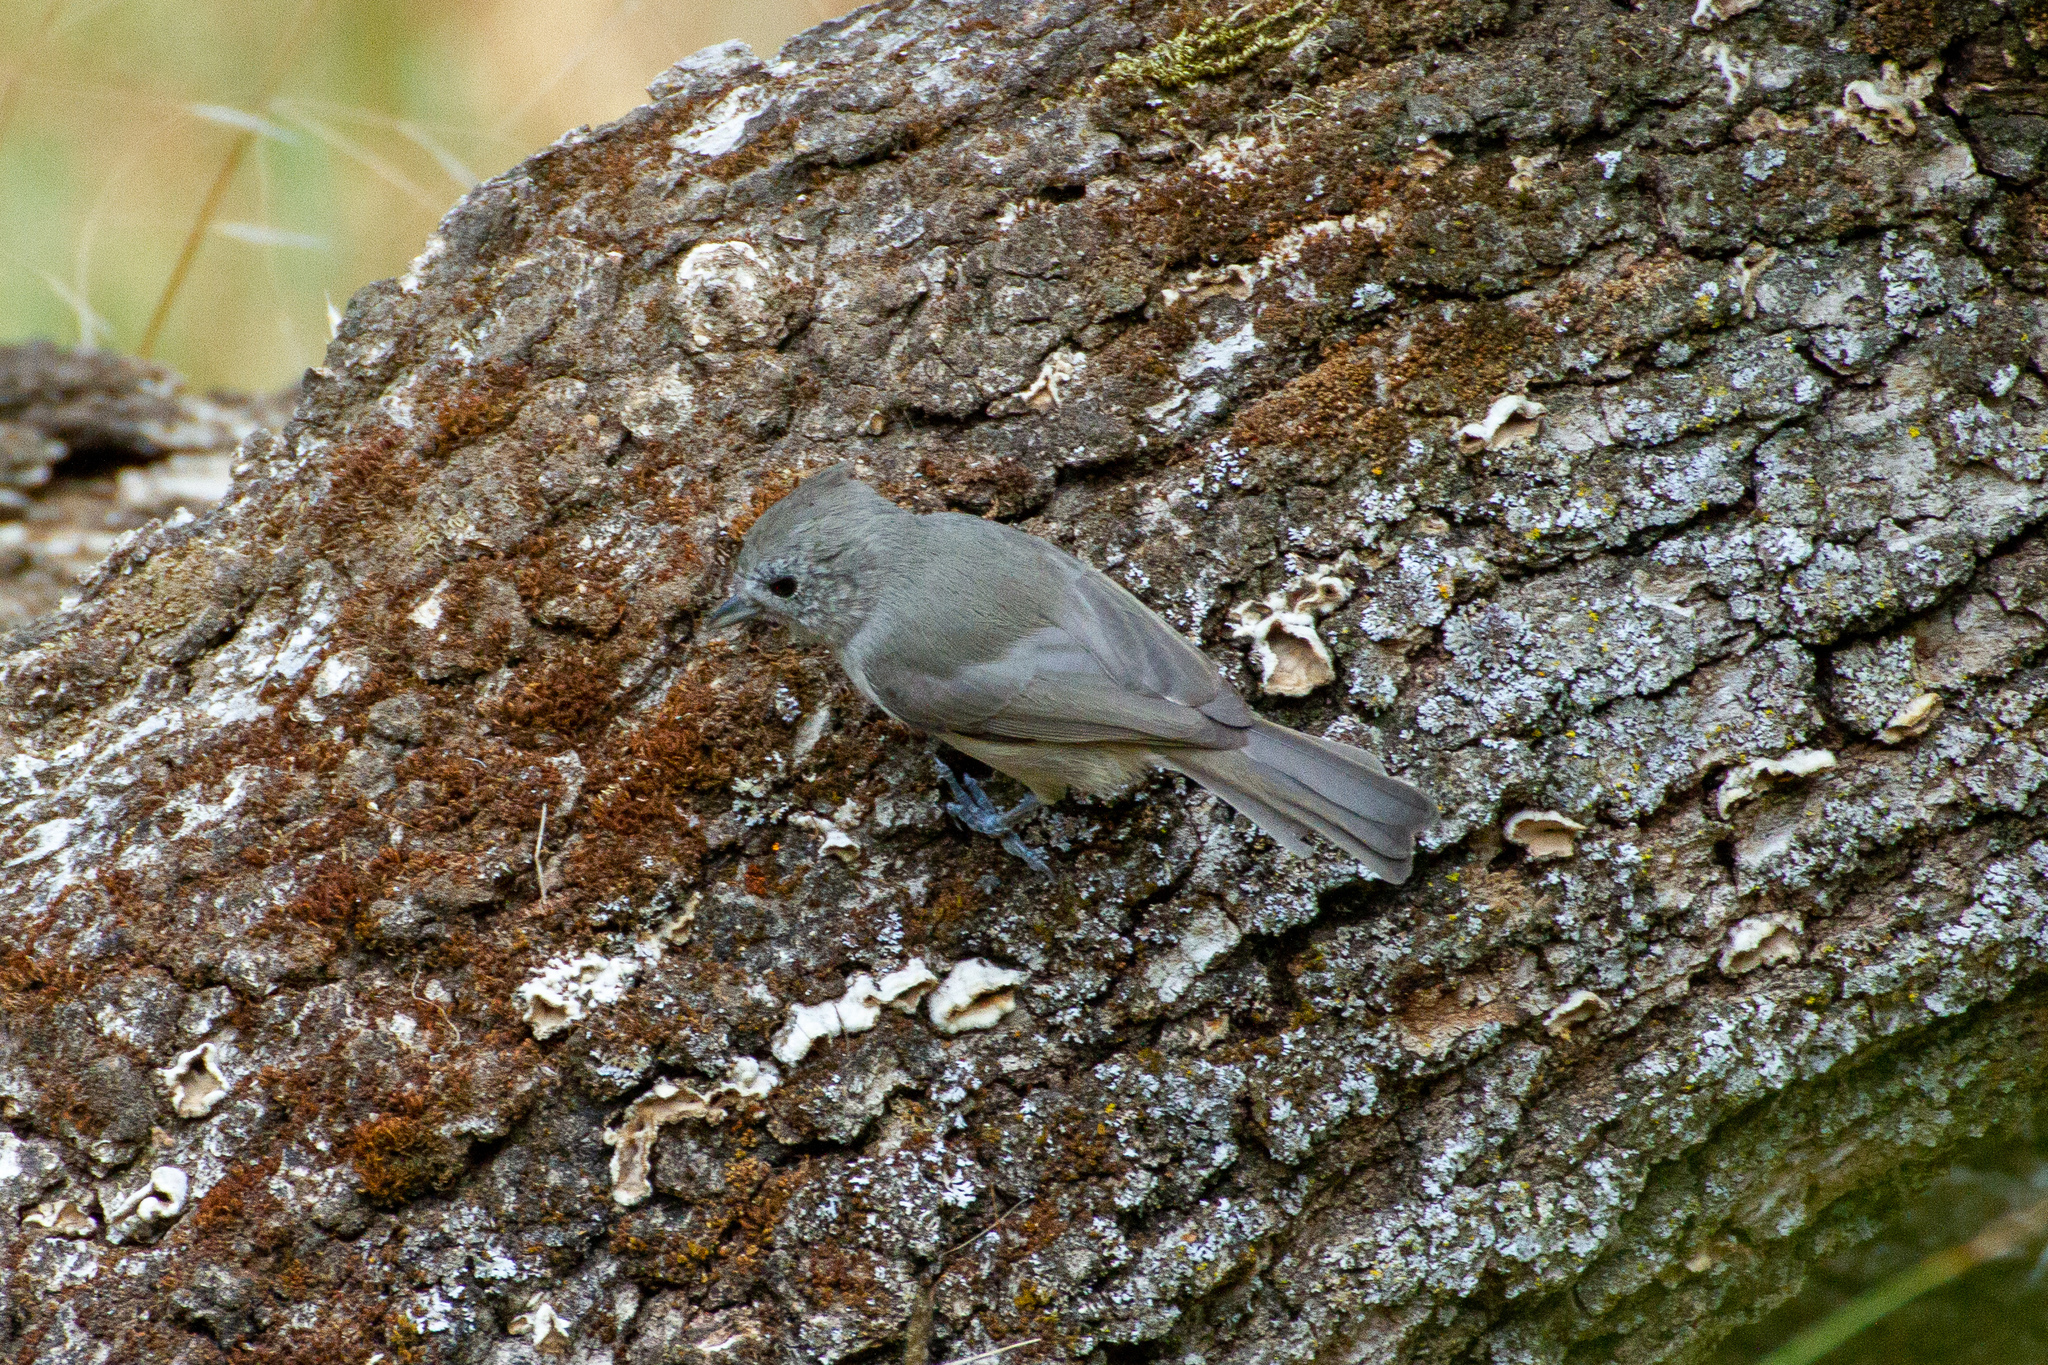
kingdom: Animalia
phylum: Chordata
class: Aves
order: Passeriformes
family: Paridae
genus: Baeolophus
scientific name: Baeolophus inornatus
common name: Oak titmouse
